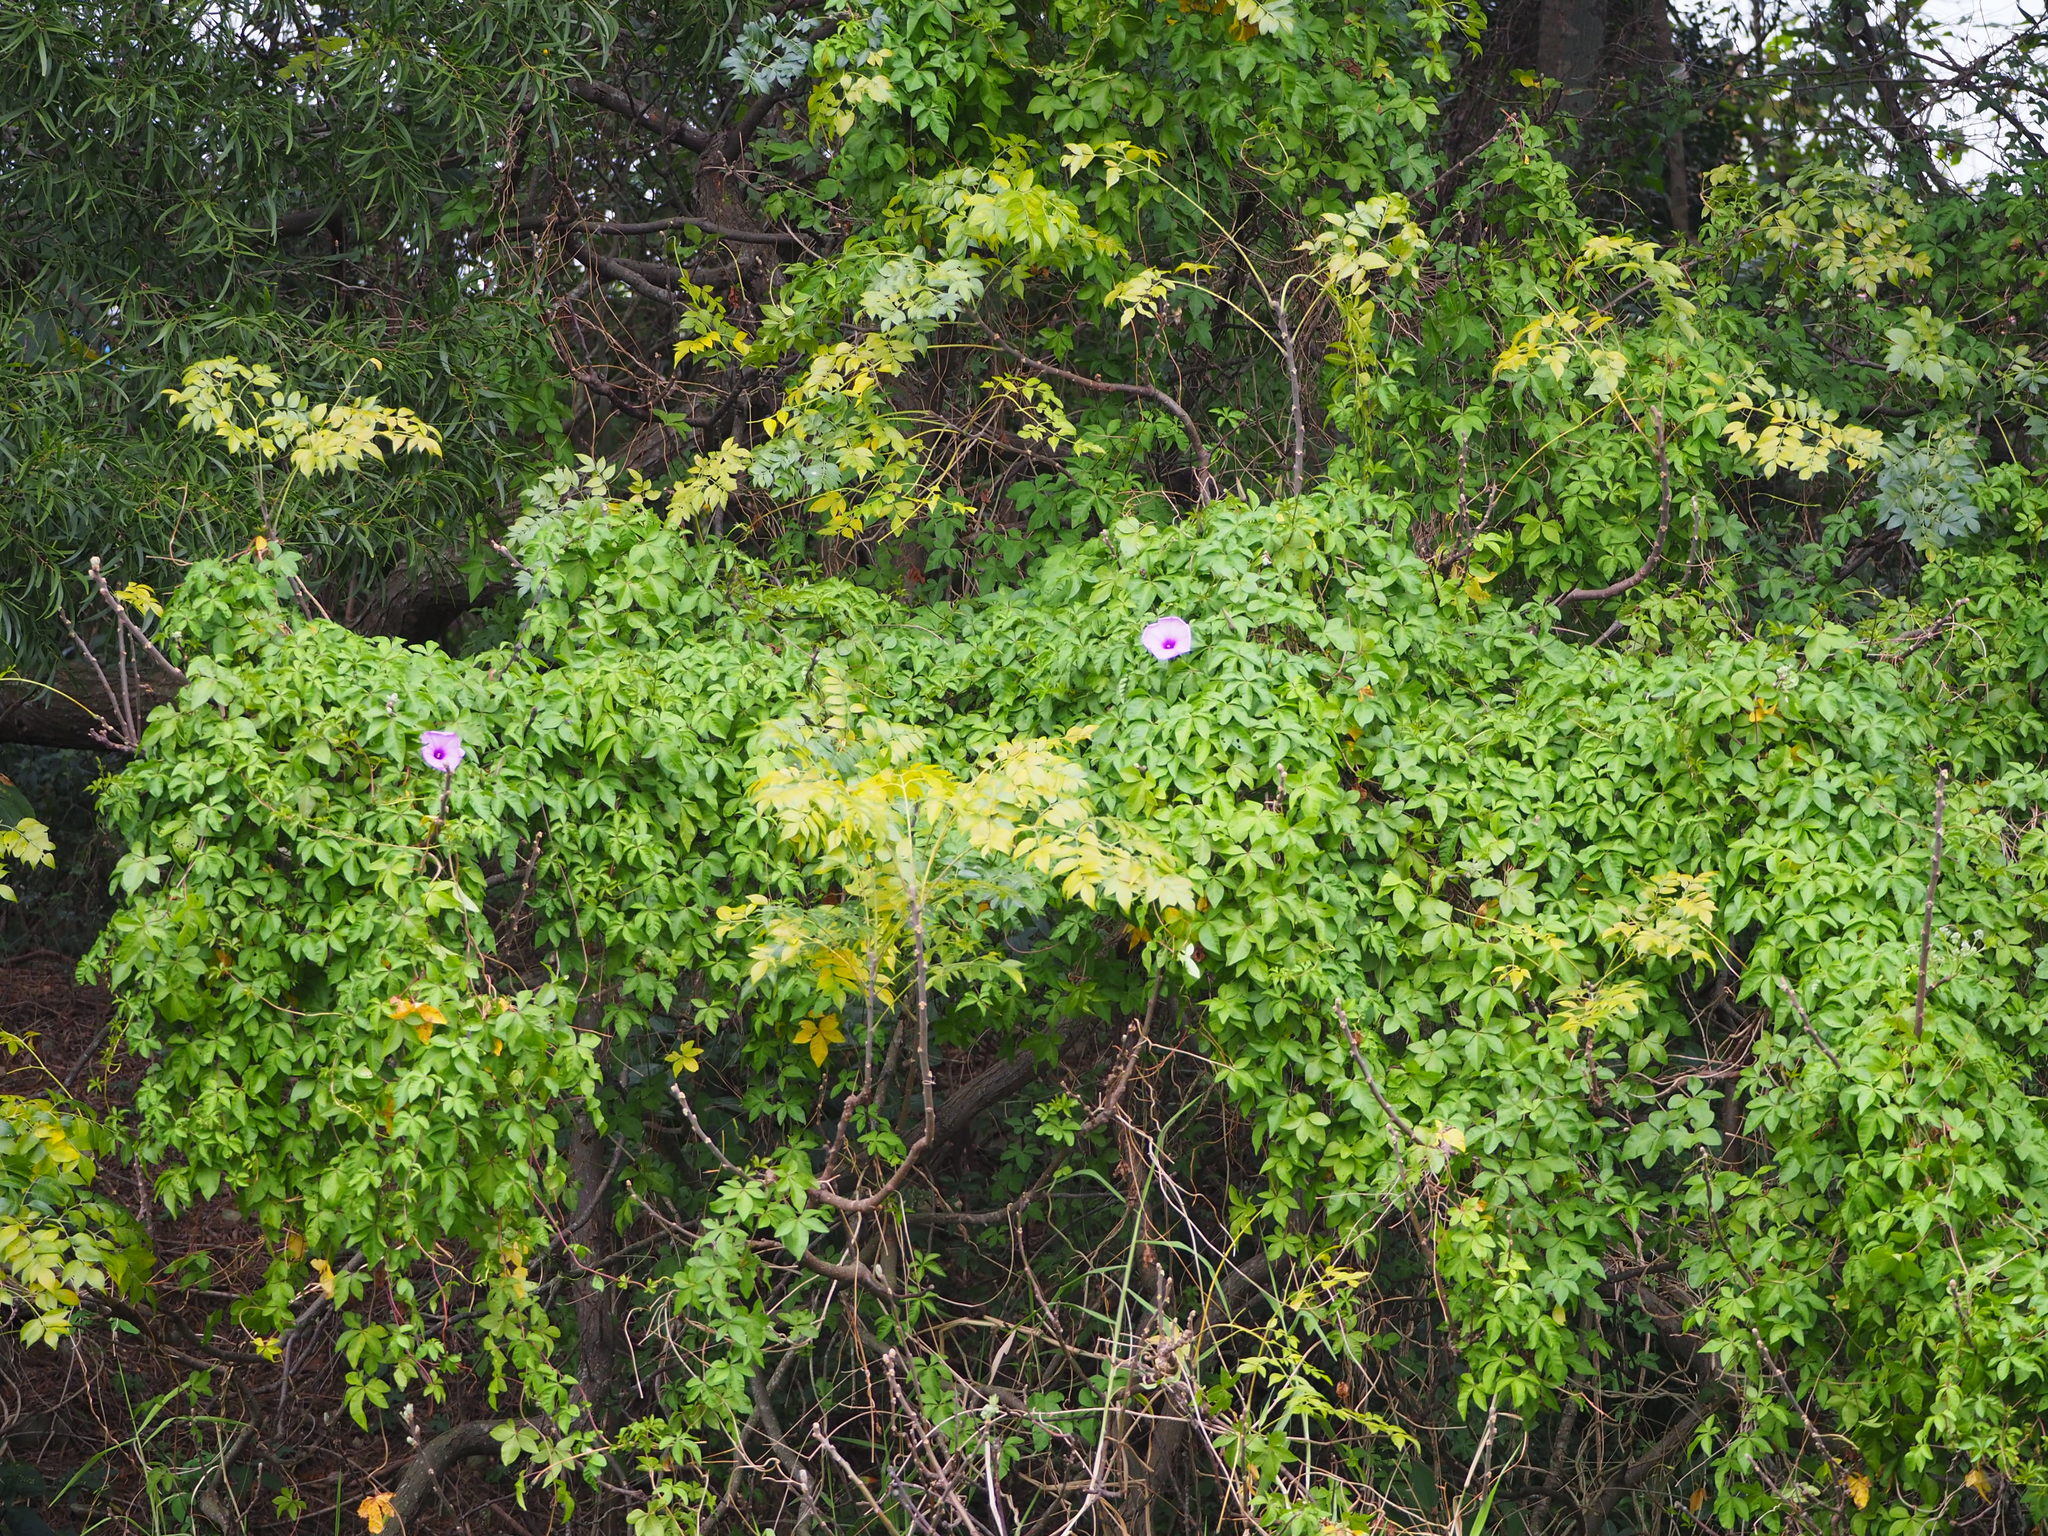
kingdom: Plantae
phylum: Tracheophyta
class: Magnoliopsida
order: Solanales
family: Convolvulaceae
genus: Ipomoea
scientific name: Ipomoea cairica
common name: Mile a minute vine
